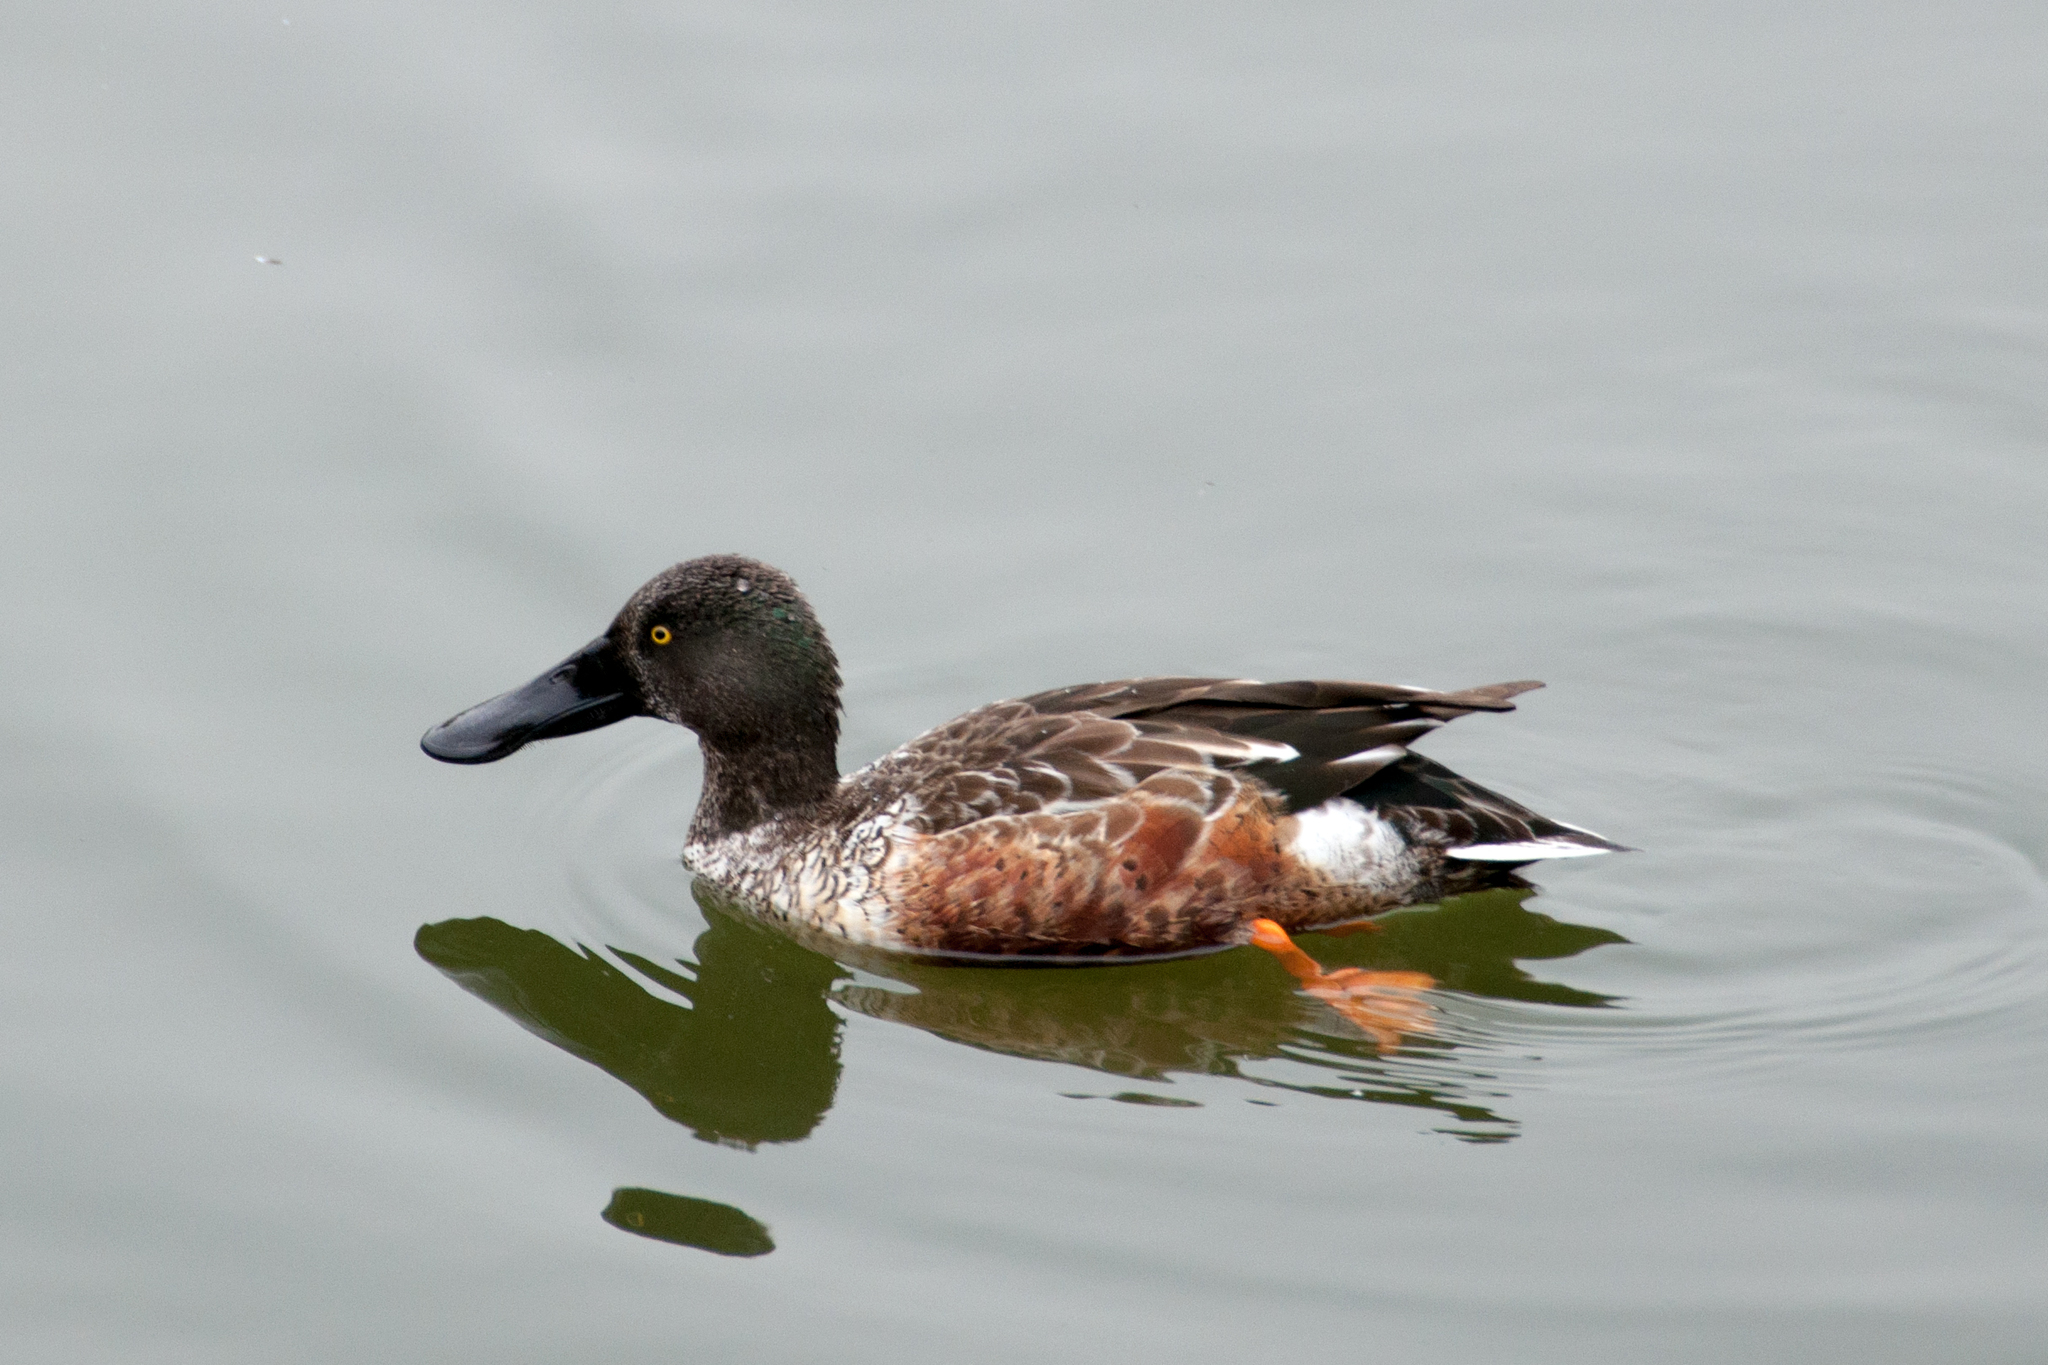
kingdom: Animalia
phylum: Chordata
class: Aves
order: Anseriformes
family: Anatidae
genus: Spatula
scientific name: Spatula clypeata
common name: Northern shoveler
